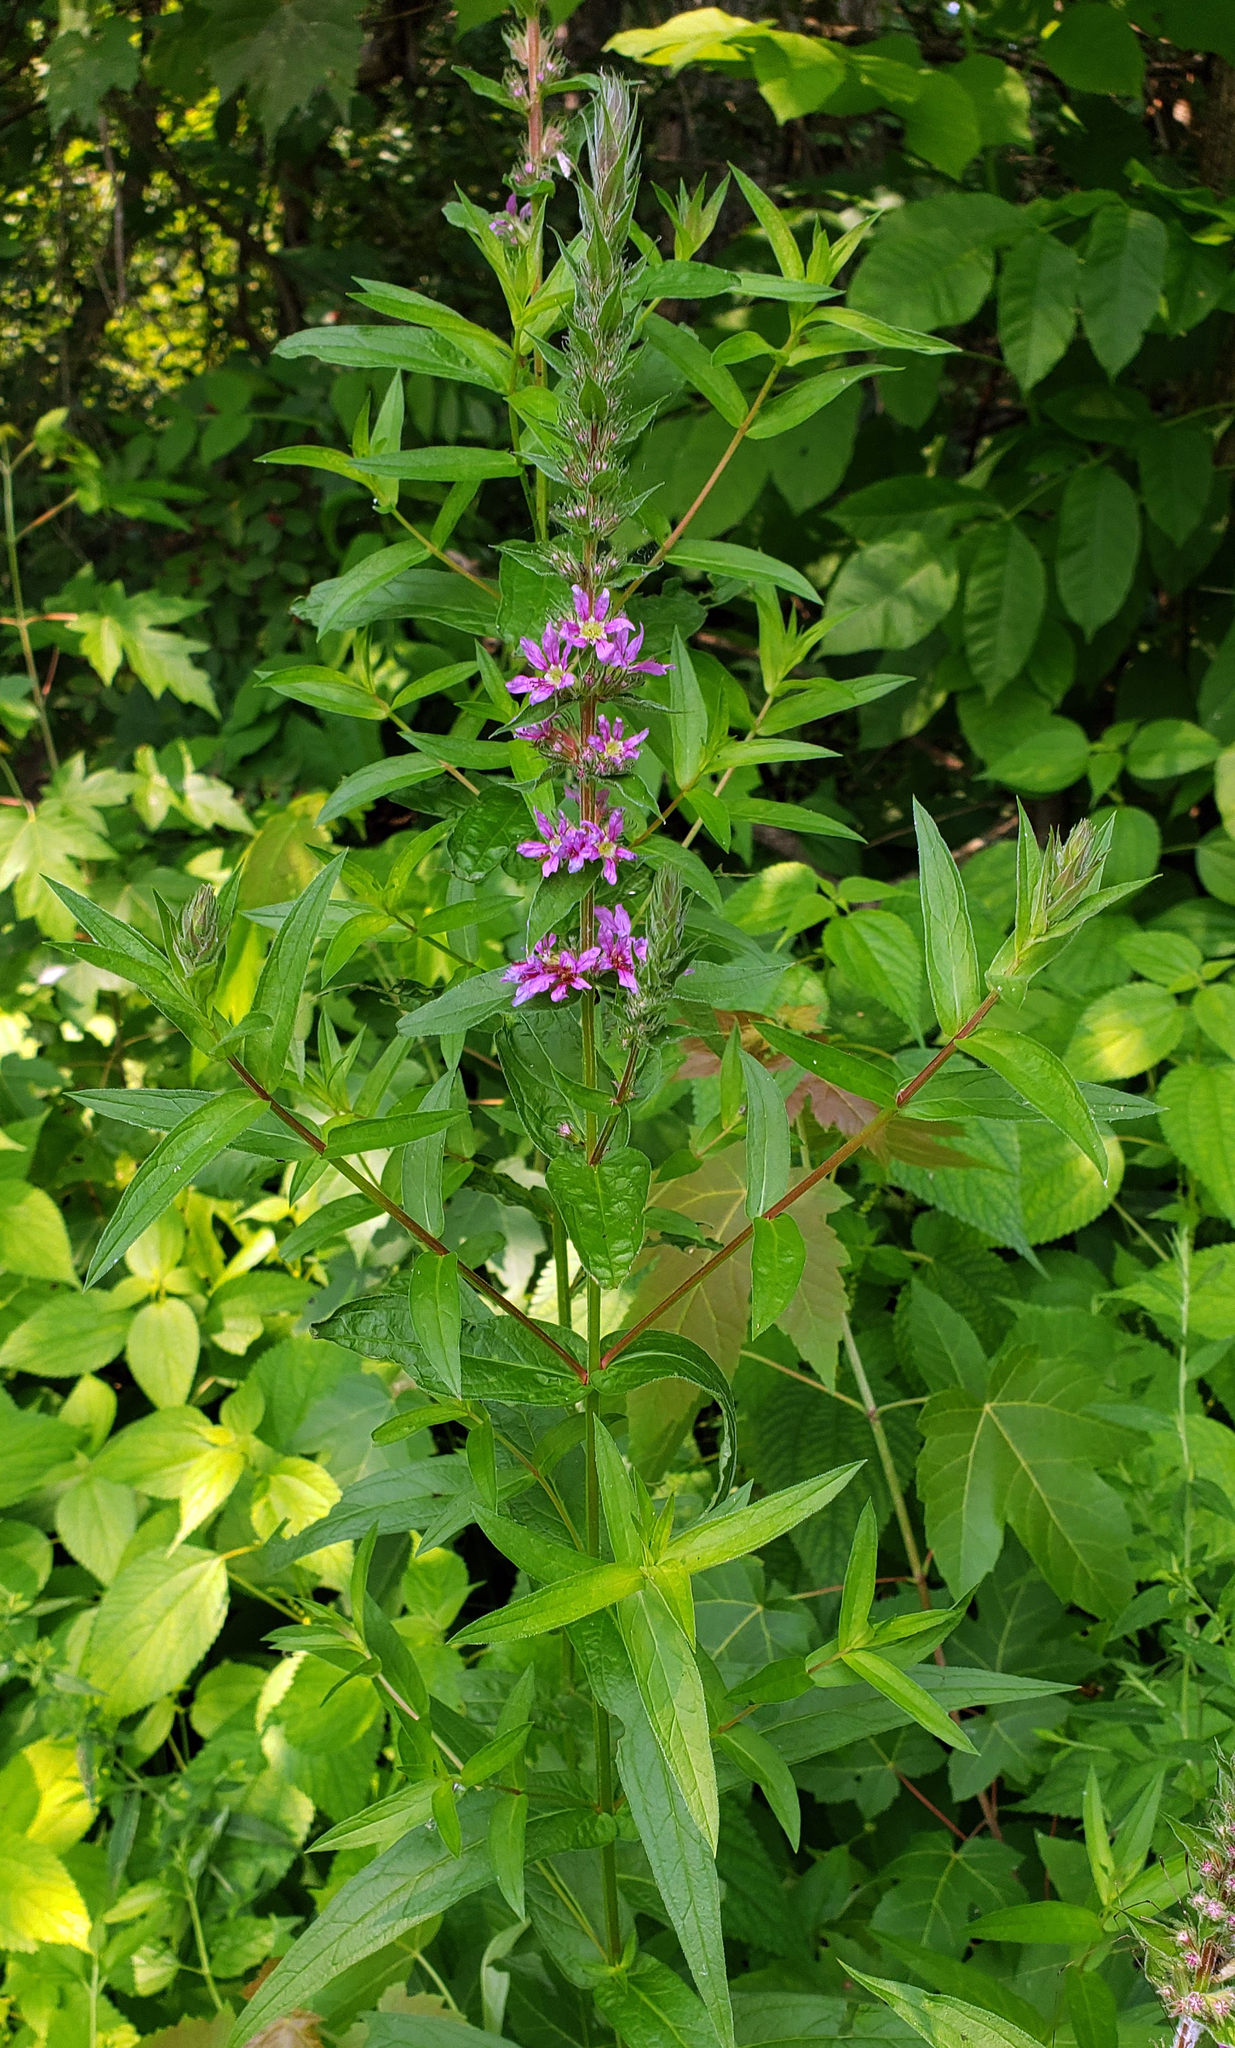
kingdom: Plantae
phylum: Tracheophyta
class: Magnoliopsida
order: Myrtales
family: Lythraceae
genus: Lythrum
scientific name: Lythrum salicaria
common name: Purple loosestrife
